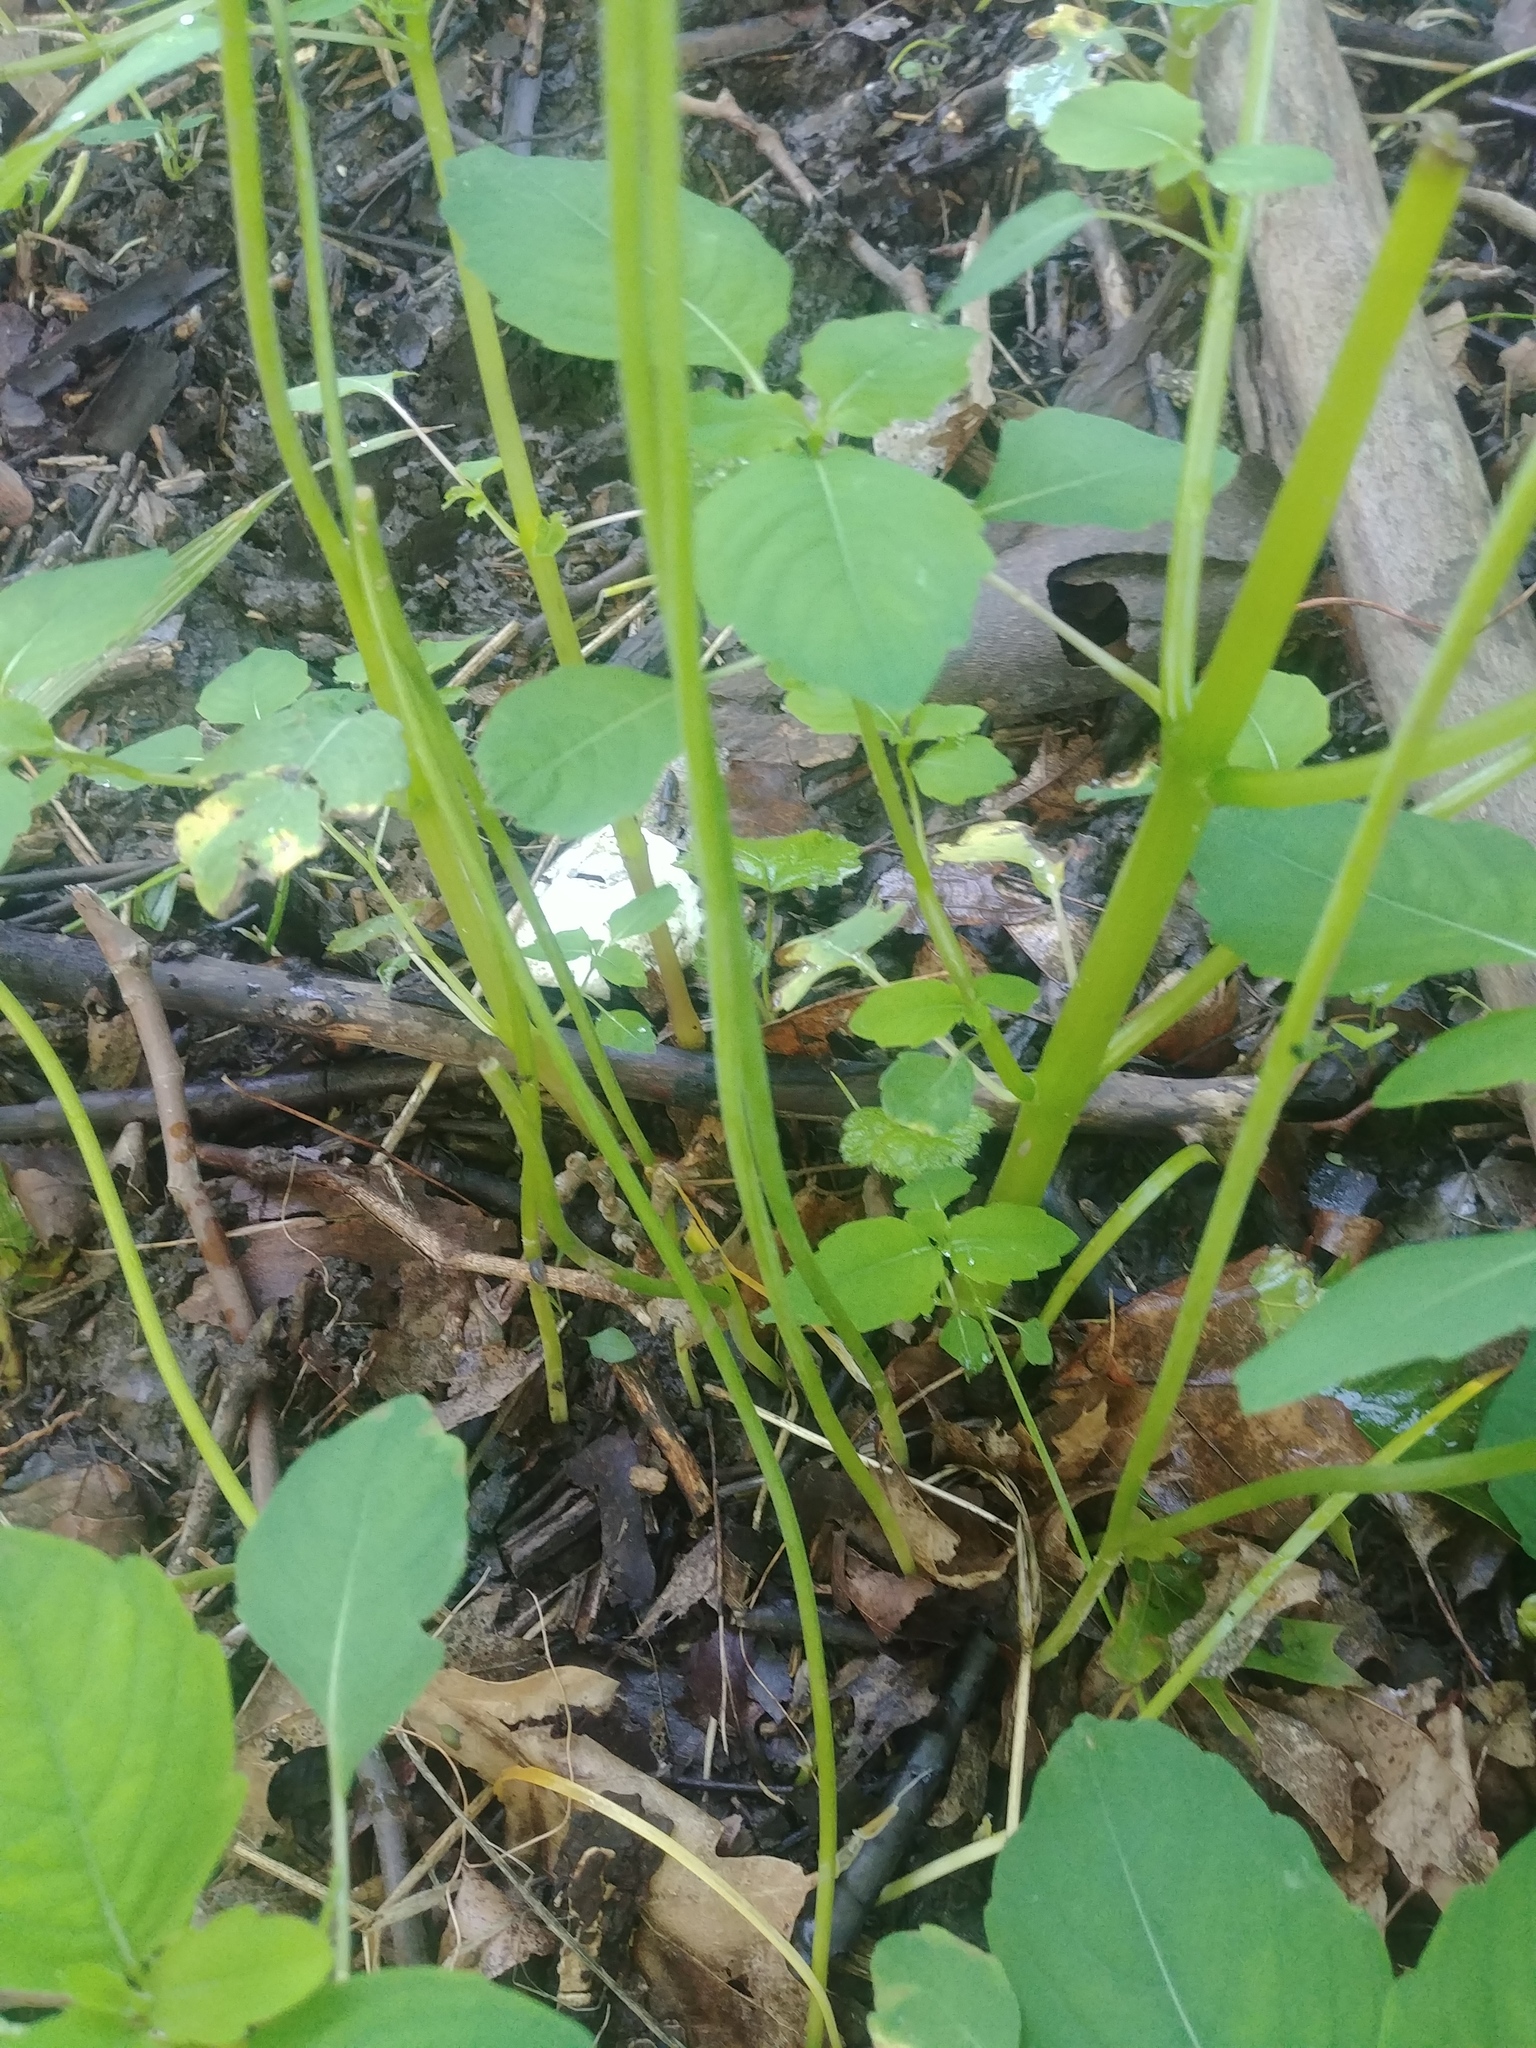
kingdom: Plantae
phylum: Tracheophyta
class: Liliopsida
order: Asparagales
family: Amaryllidaceae
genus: Allium
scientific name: Allium canadense
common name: Meadow garlic
